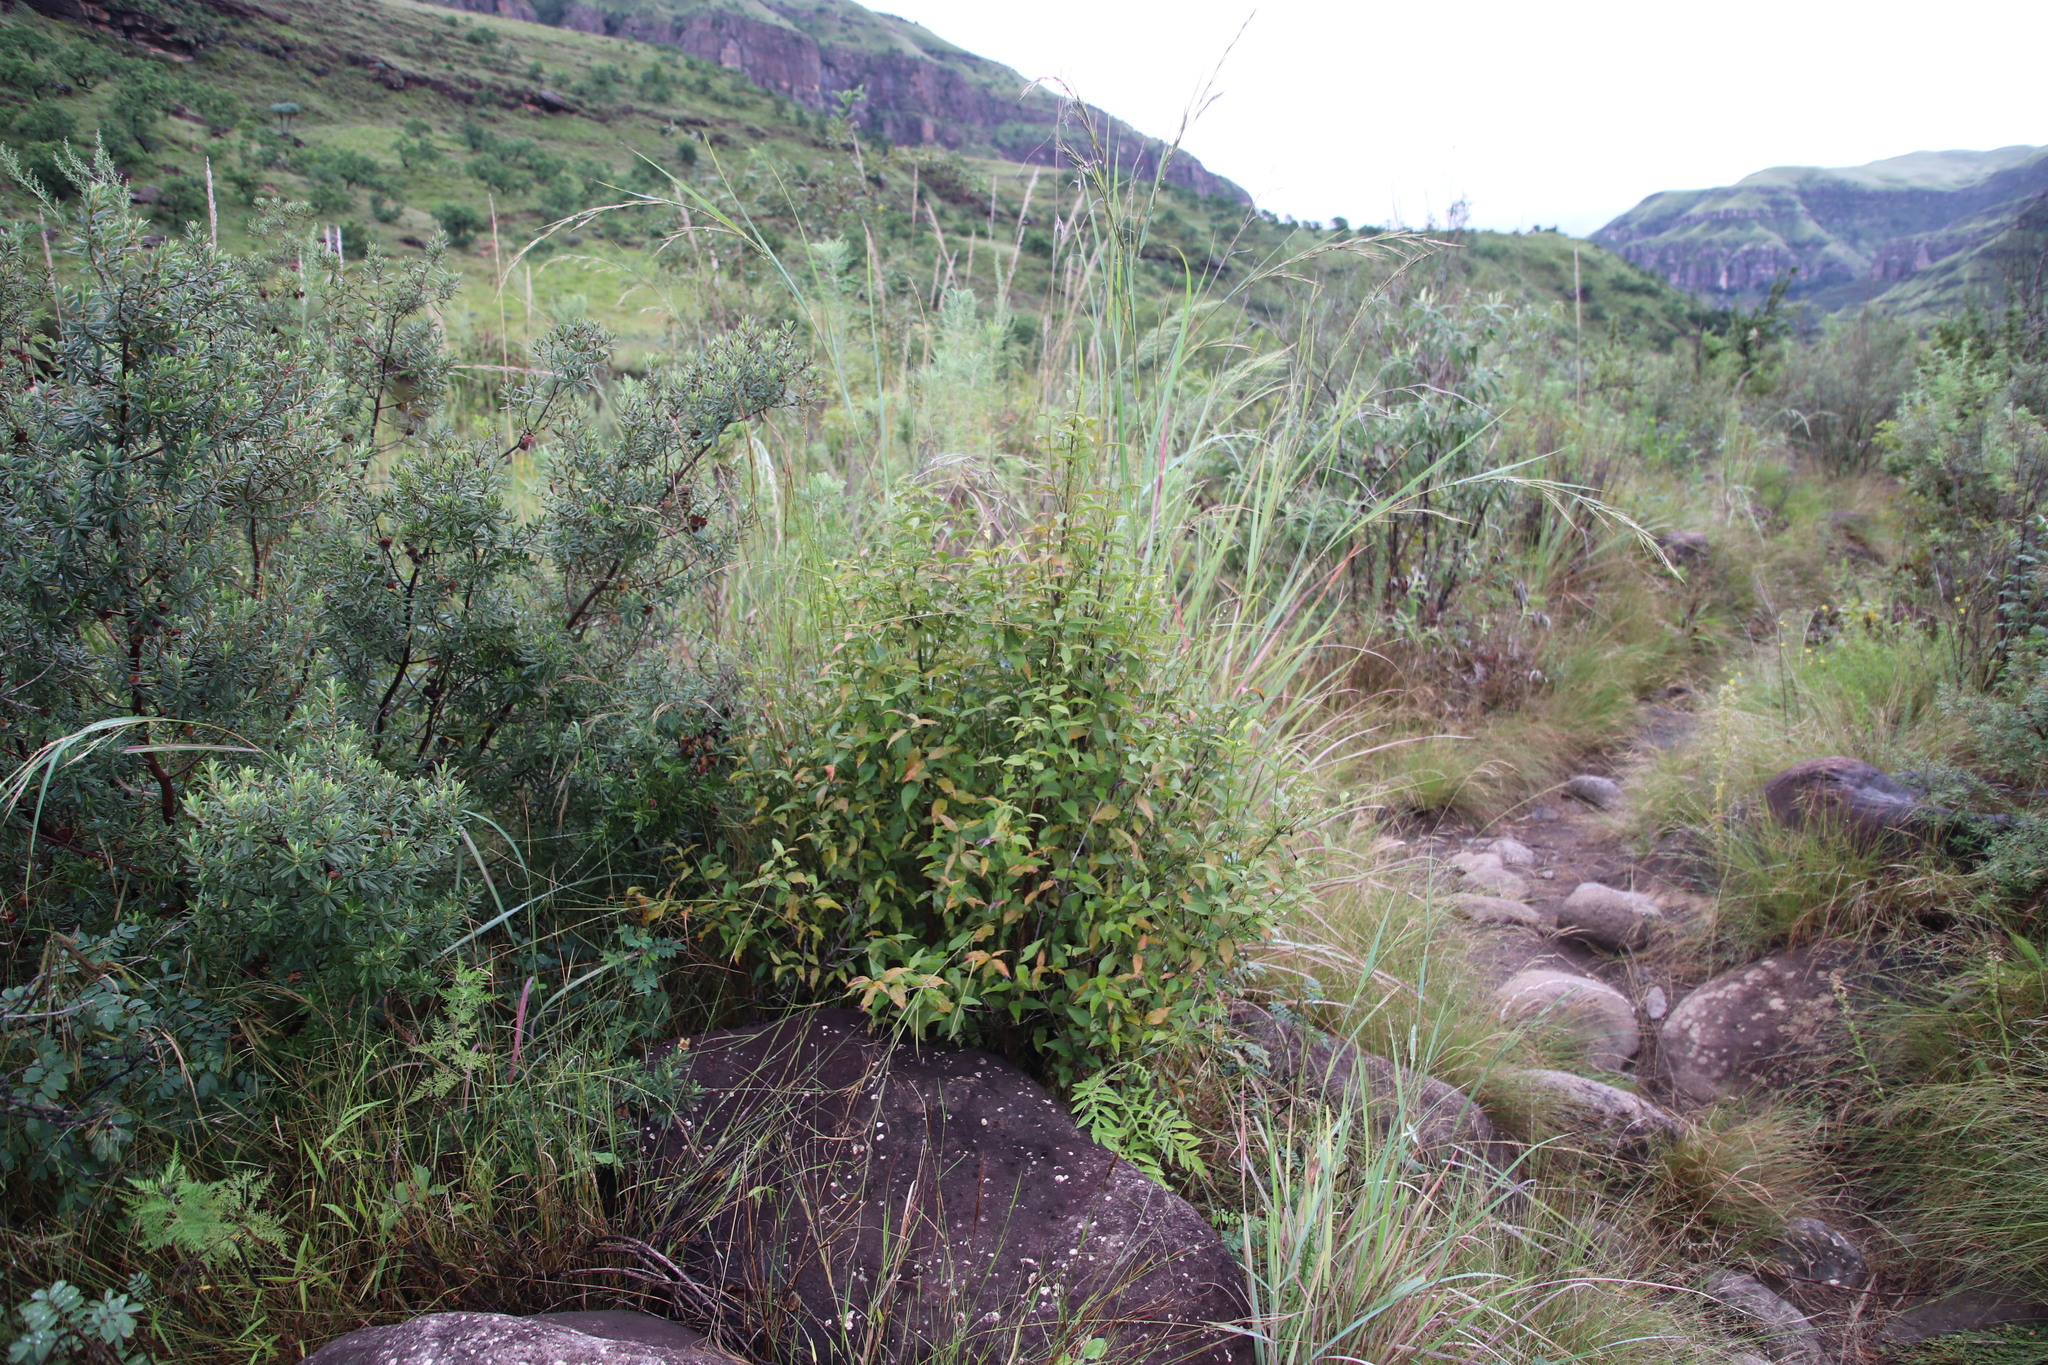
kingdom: Plantae
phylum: Tracheophyta
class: Magnoliopsida
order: Lamiales
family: Stilbaceae
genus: Halleria
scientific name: Halleria lucida
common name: Tree fuschia
